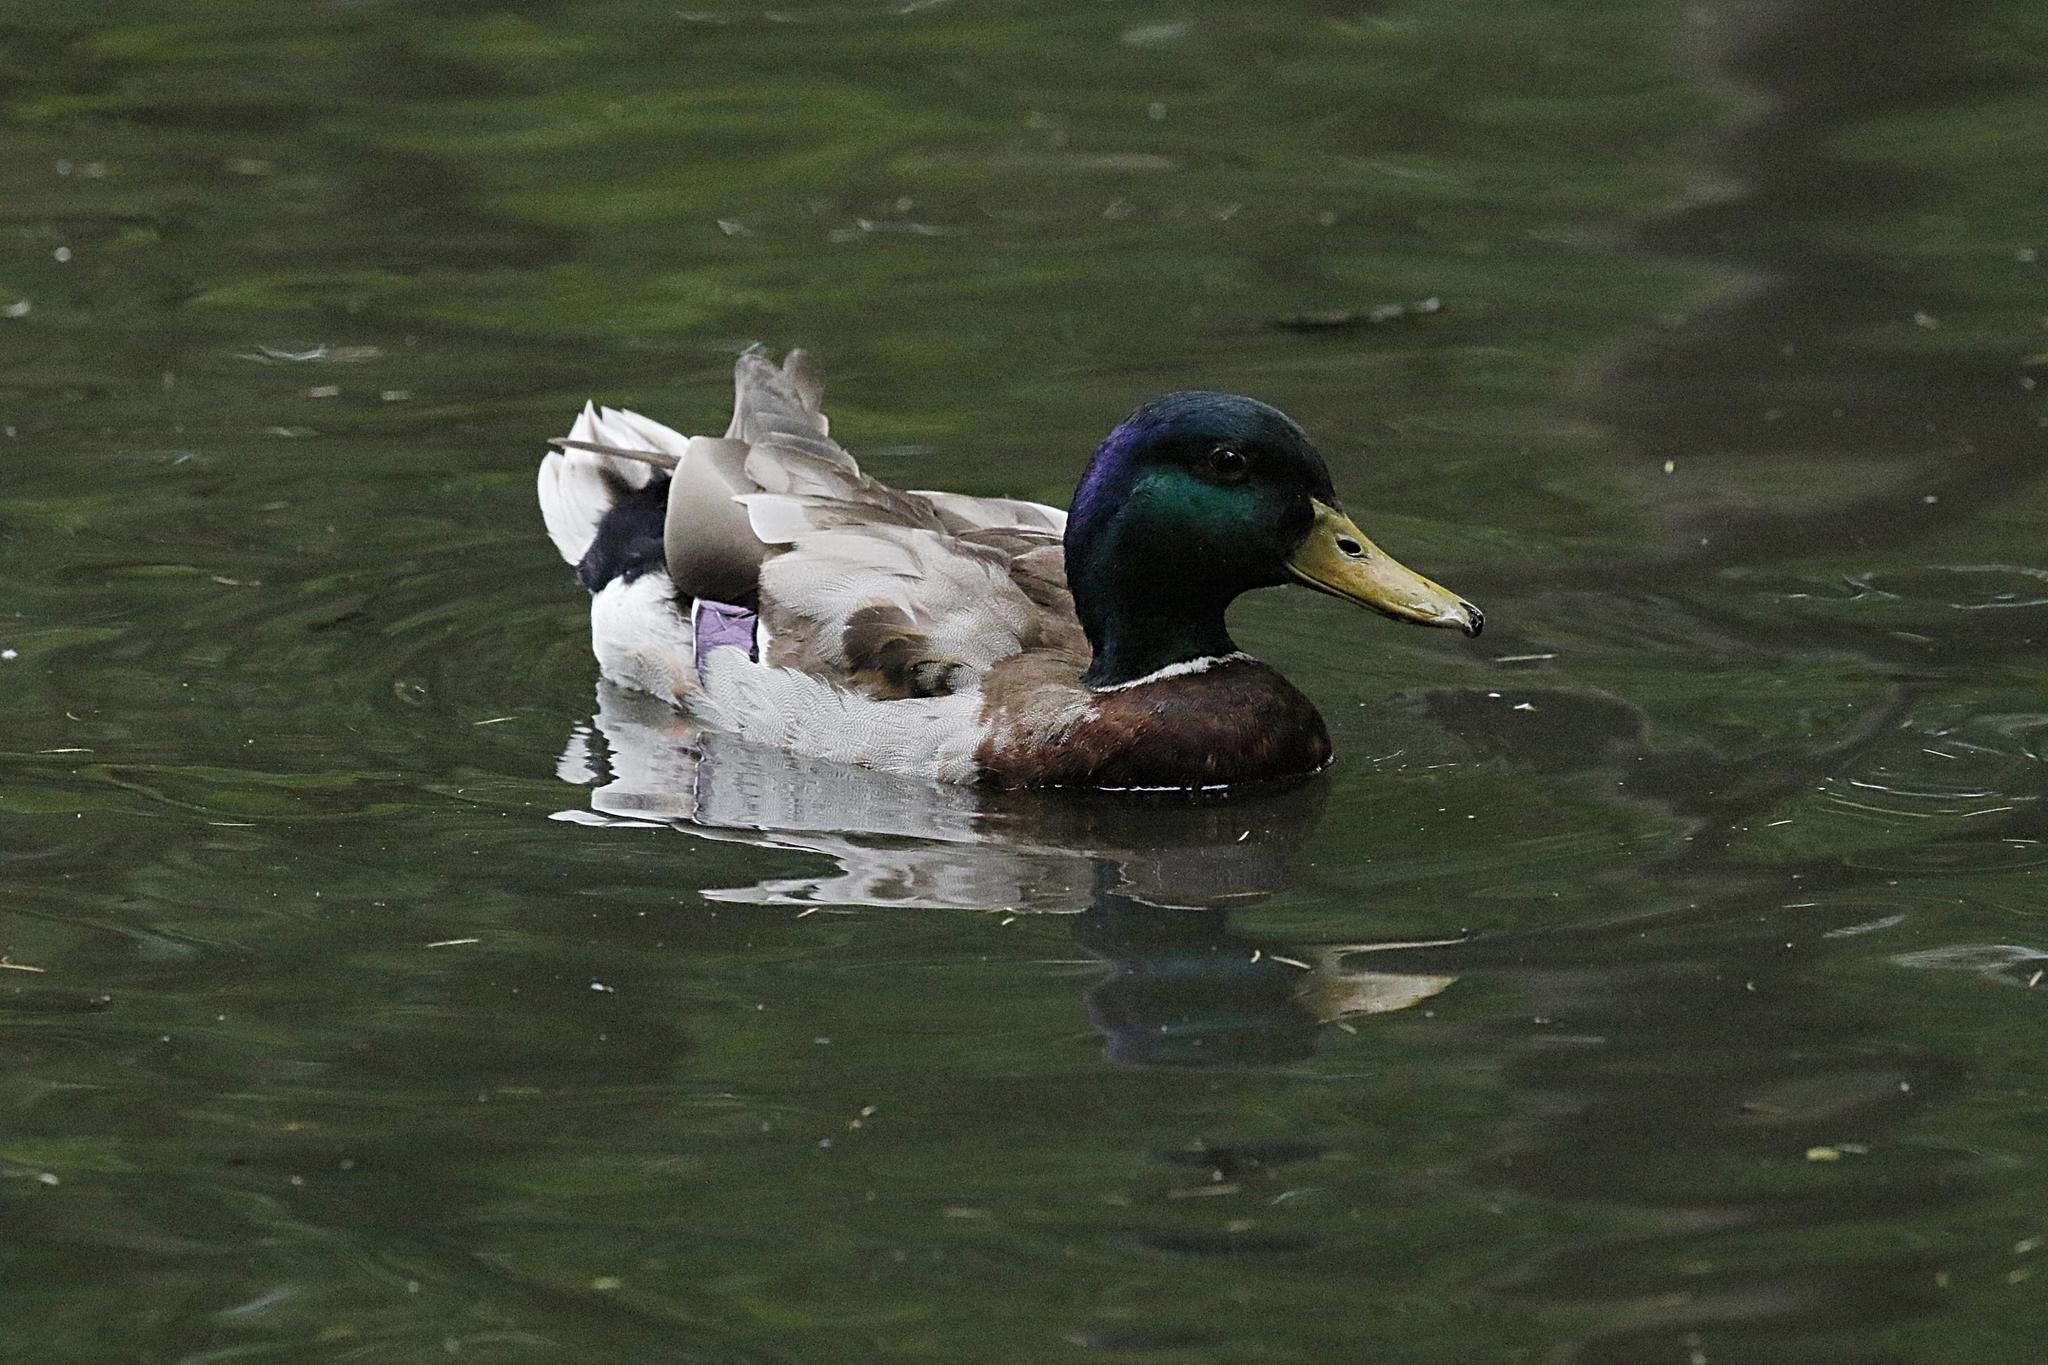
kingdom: Animalia
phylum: Chordata
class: Aves
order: Anseriformes
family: Anatidae
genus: Anas
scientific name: Anas platyrhynchos
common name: Mallard
